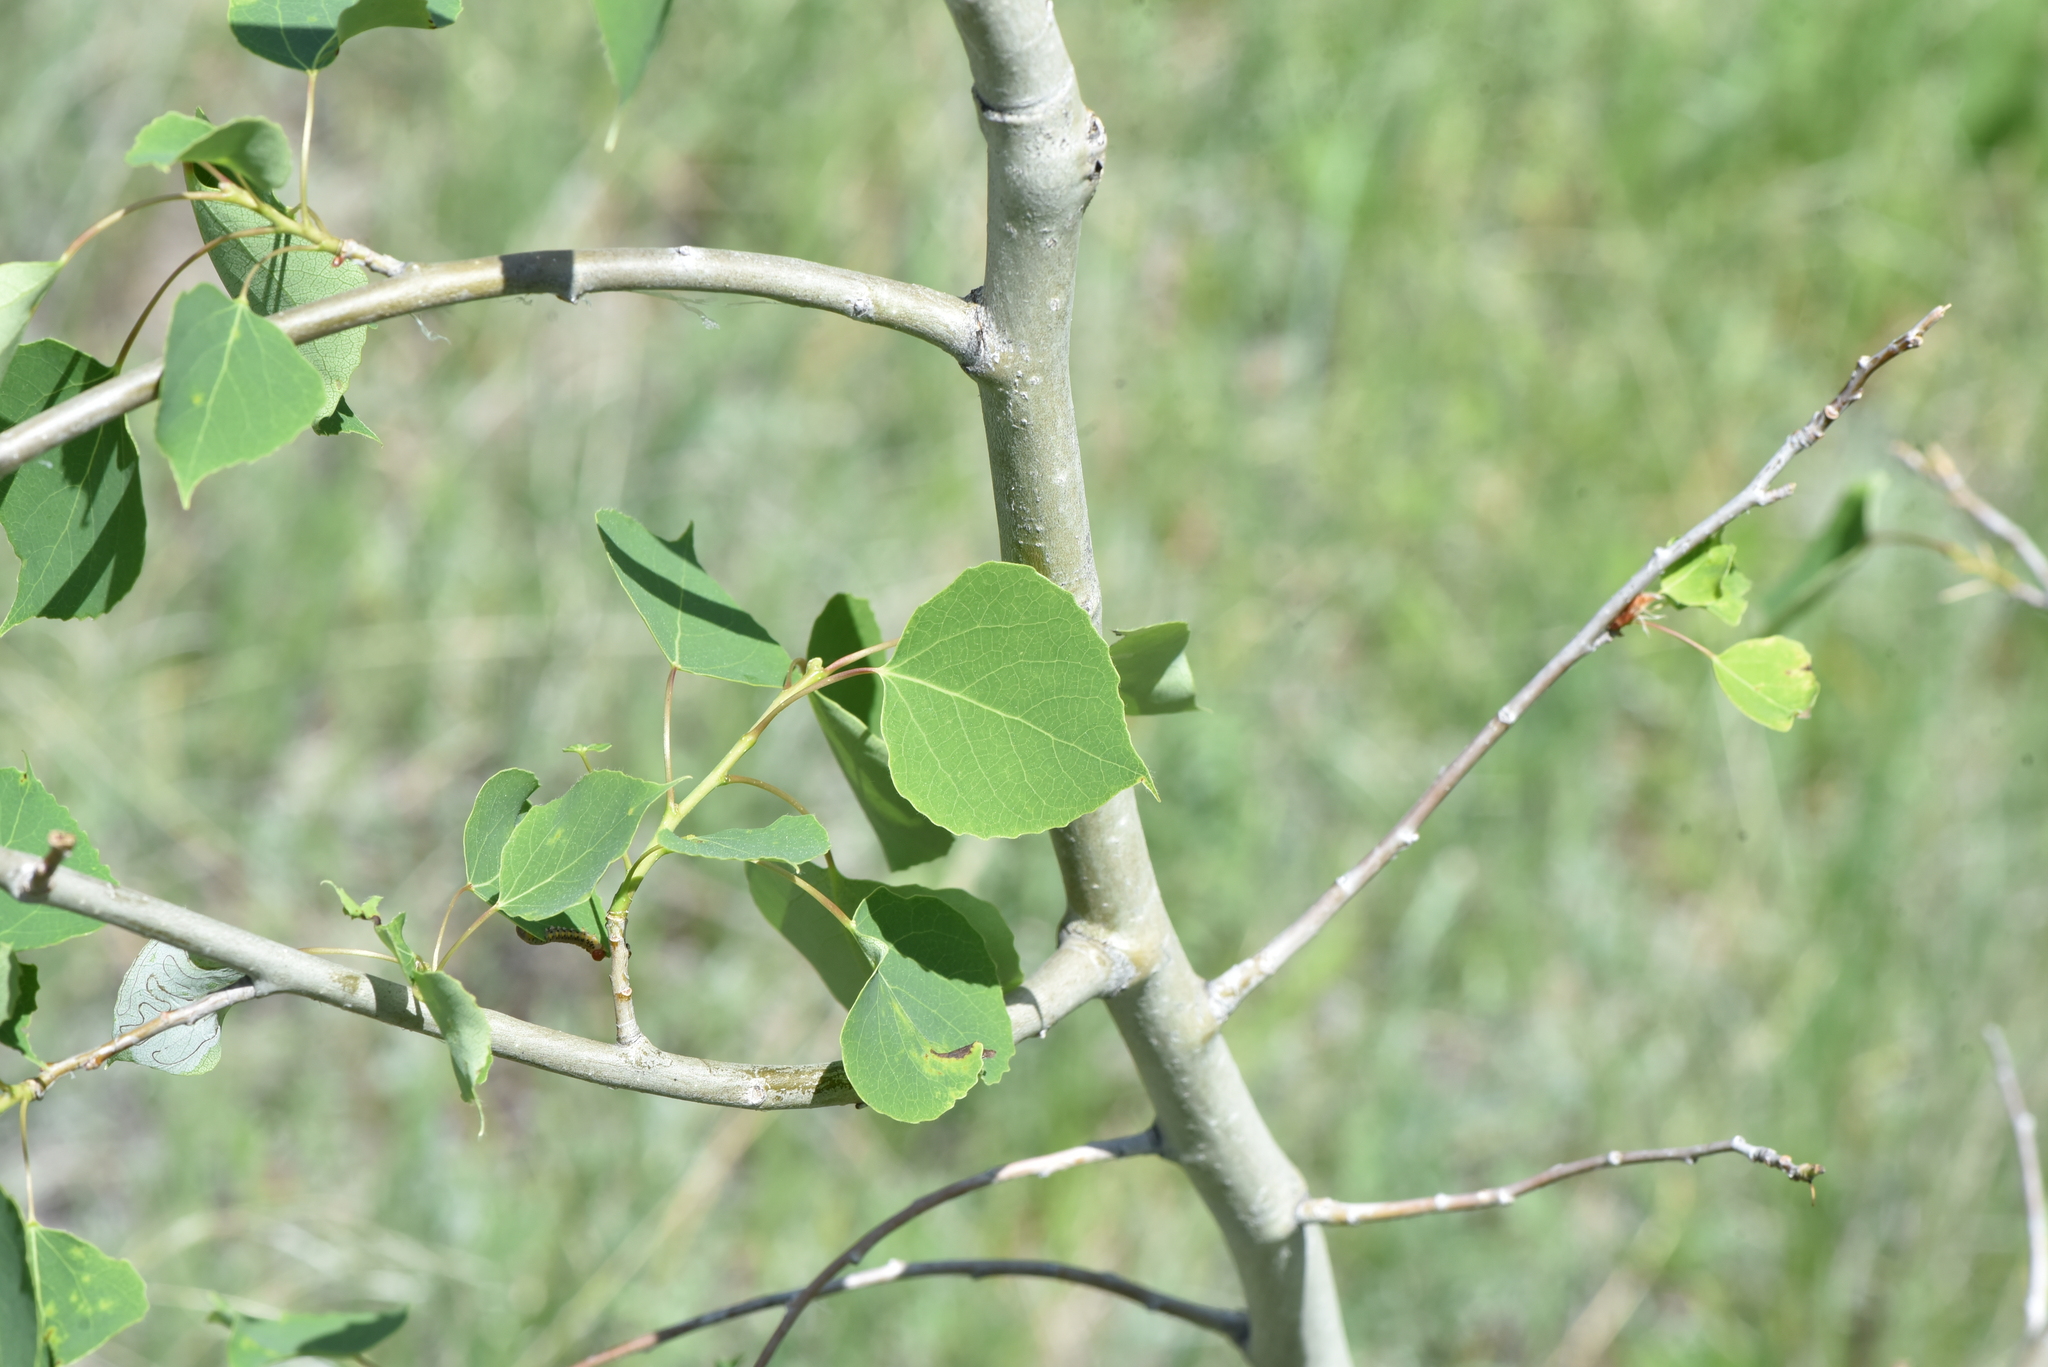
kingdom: Plantae
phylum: Tracheophyta
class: Magnoliopsida
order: Malpighiales
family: Salicaceae
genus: Populus
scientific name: Populus tremuloides
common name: Quaking aspen
